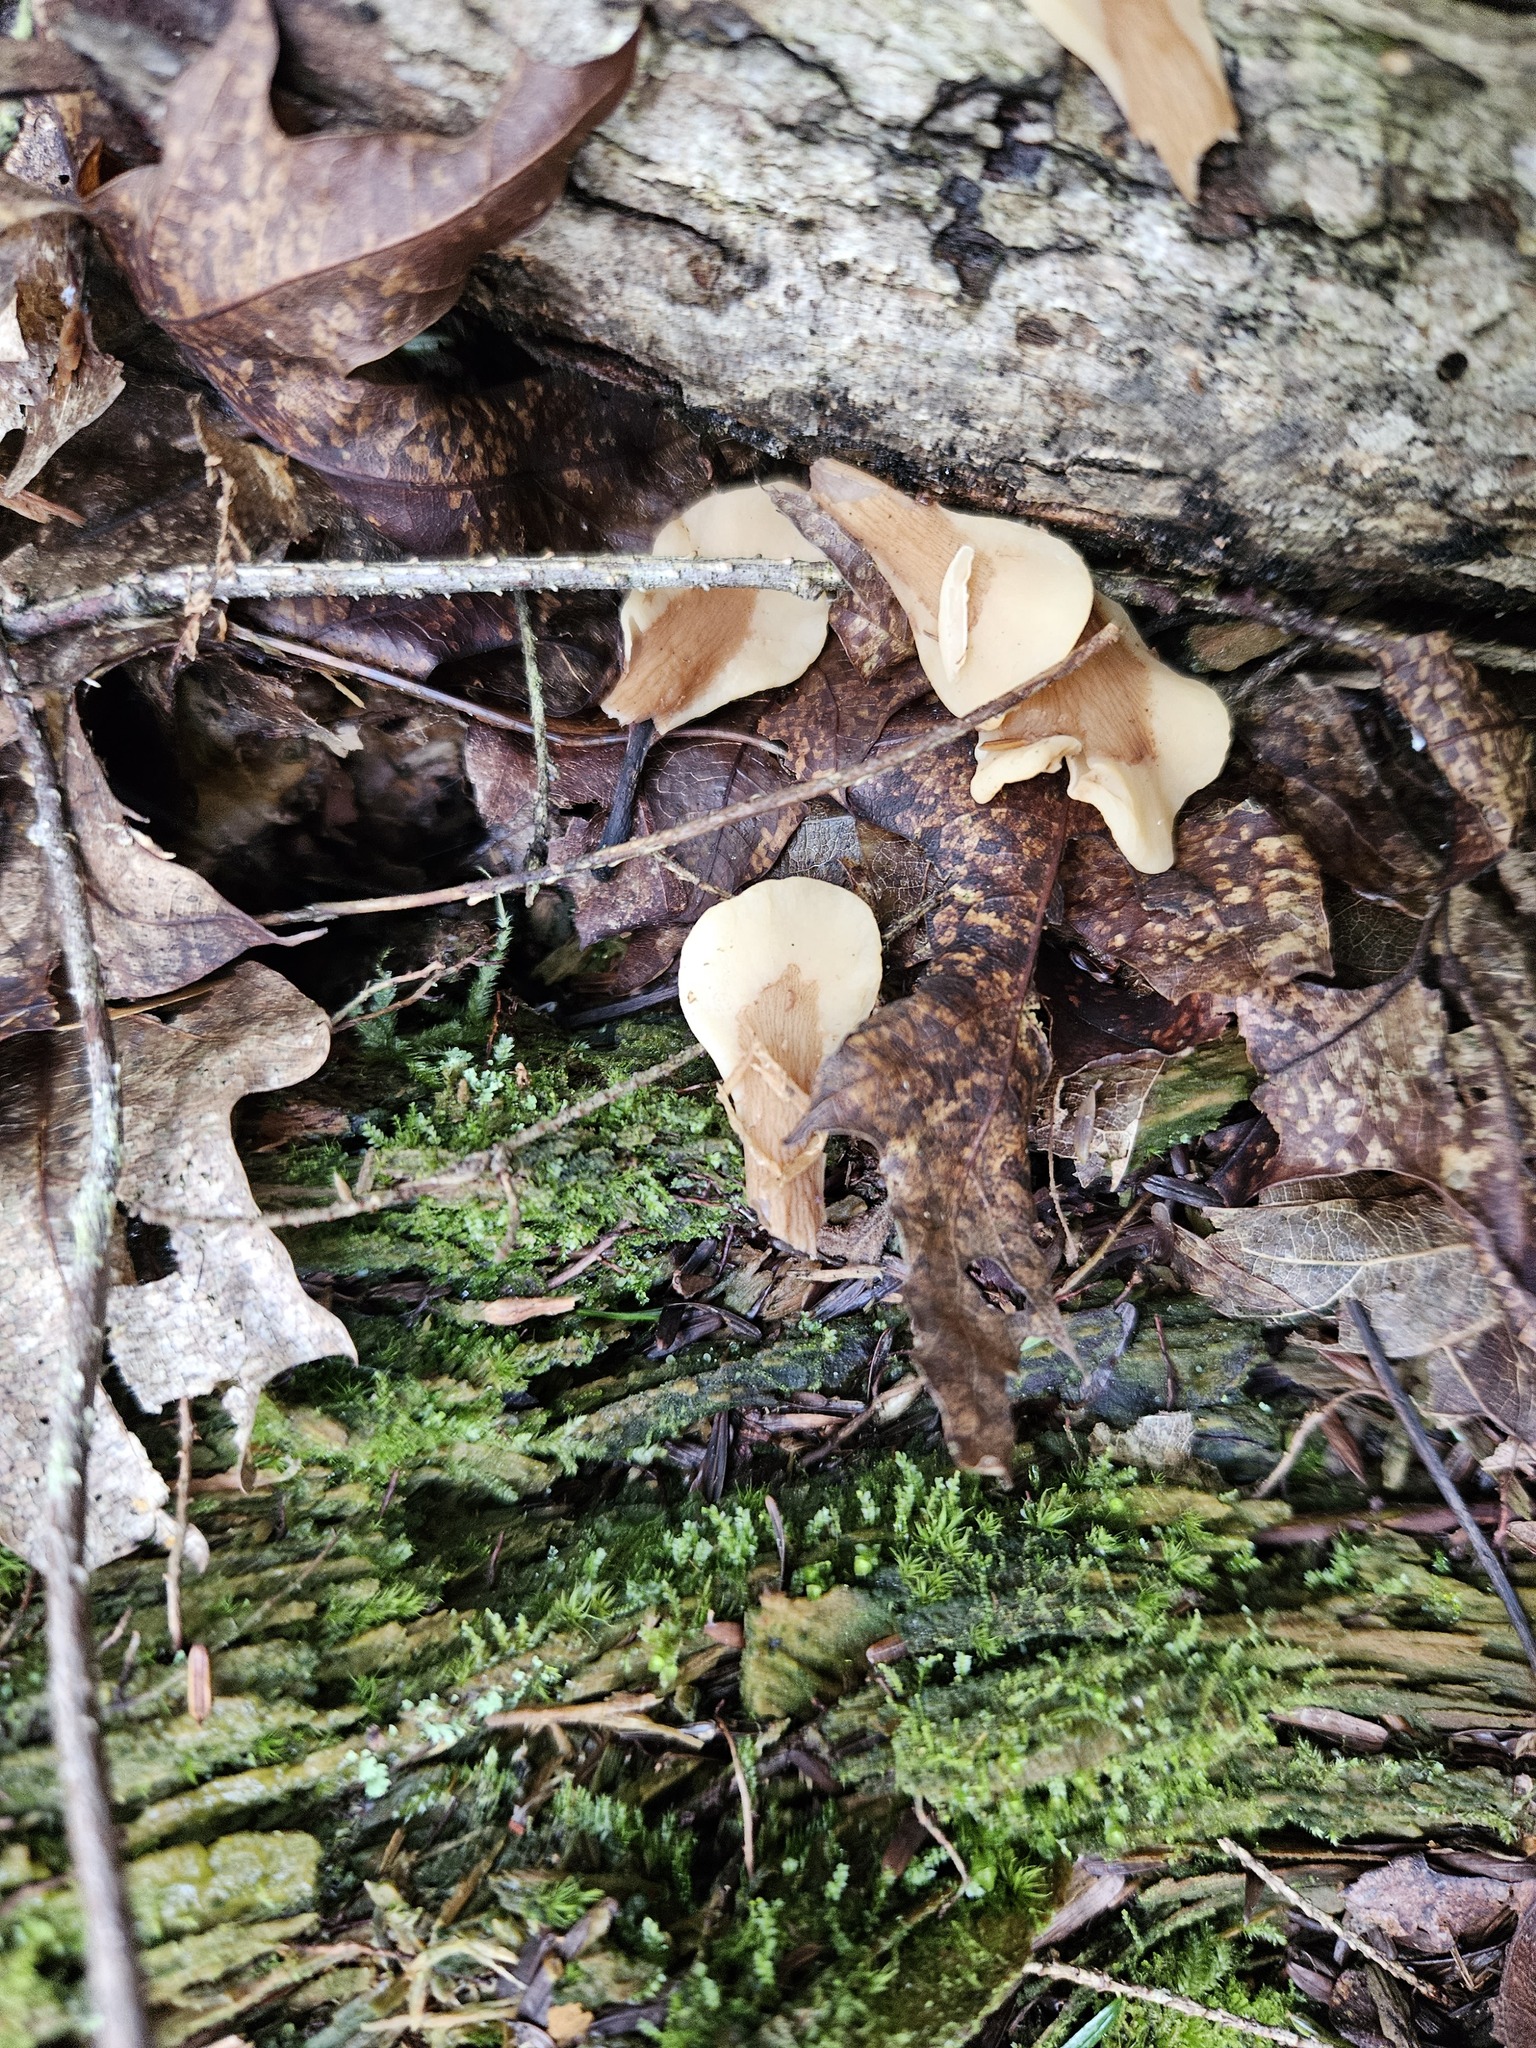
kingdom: Fungi
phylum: Ascomycota
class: Leotiomycetes
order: Rhytismatales
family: Cudoniaceae
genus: Spathulariopsis
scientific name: Spathulariopsis velutipes
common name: Velvet-foot fairy fan
